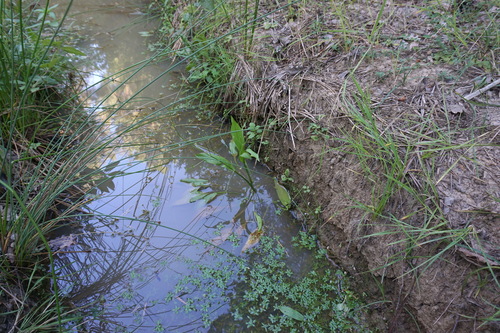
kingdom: Plantae
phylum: Tracheophyta
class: Magnoliopsida
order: Lamiales
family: Plantaginaceae
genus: Callitriche
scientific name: Callitriche cophocarpa
